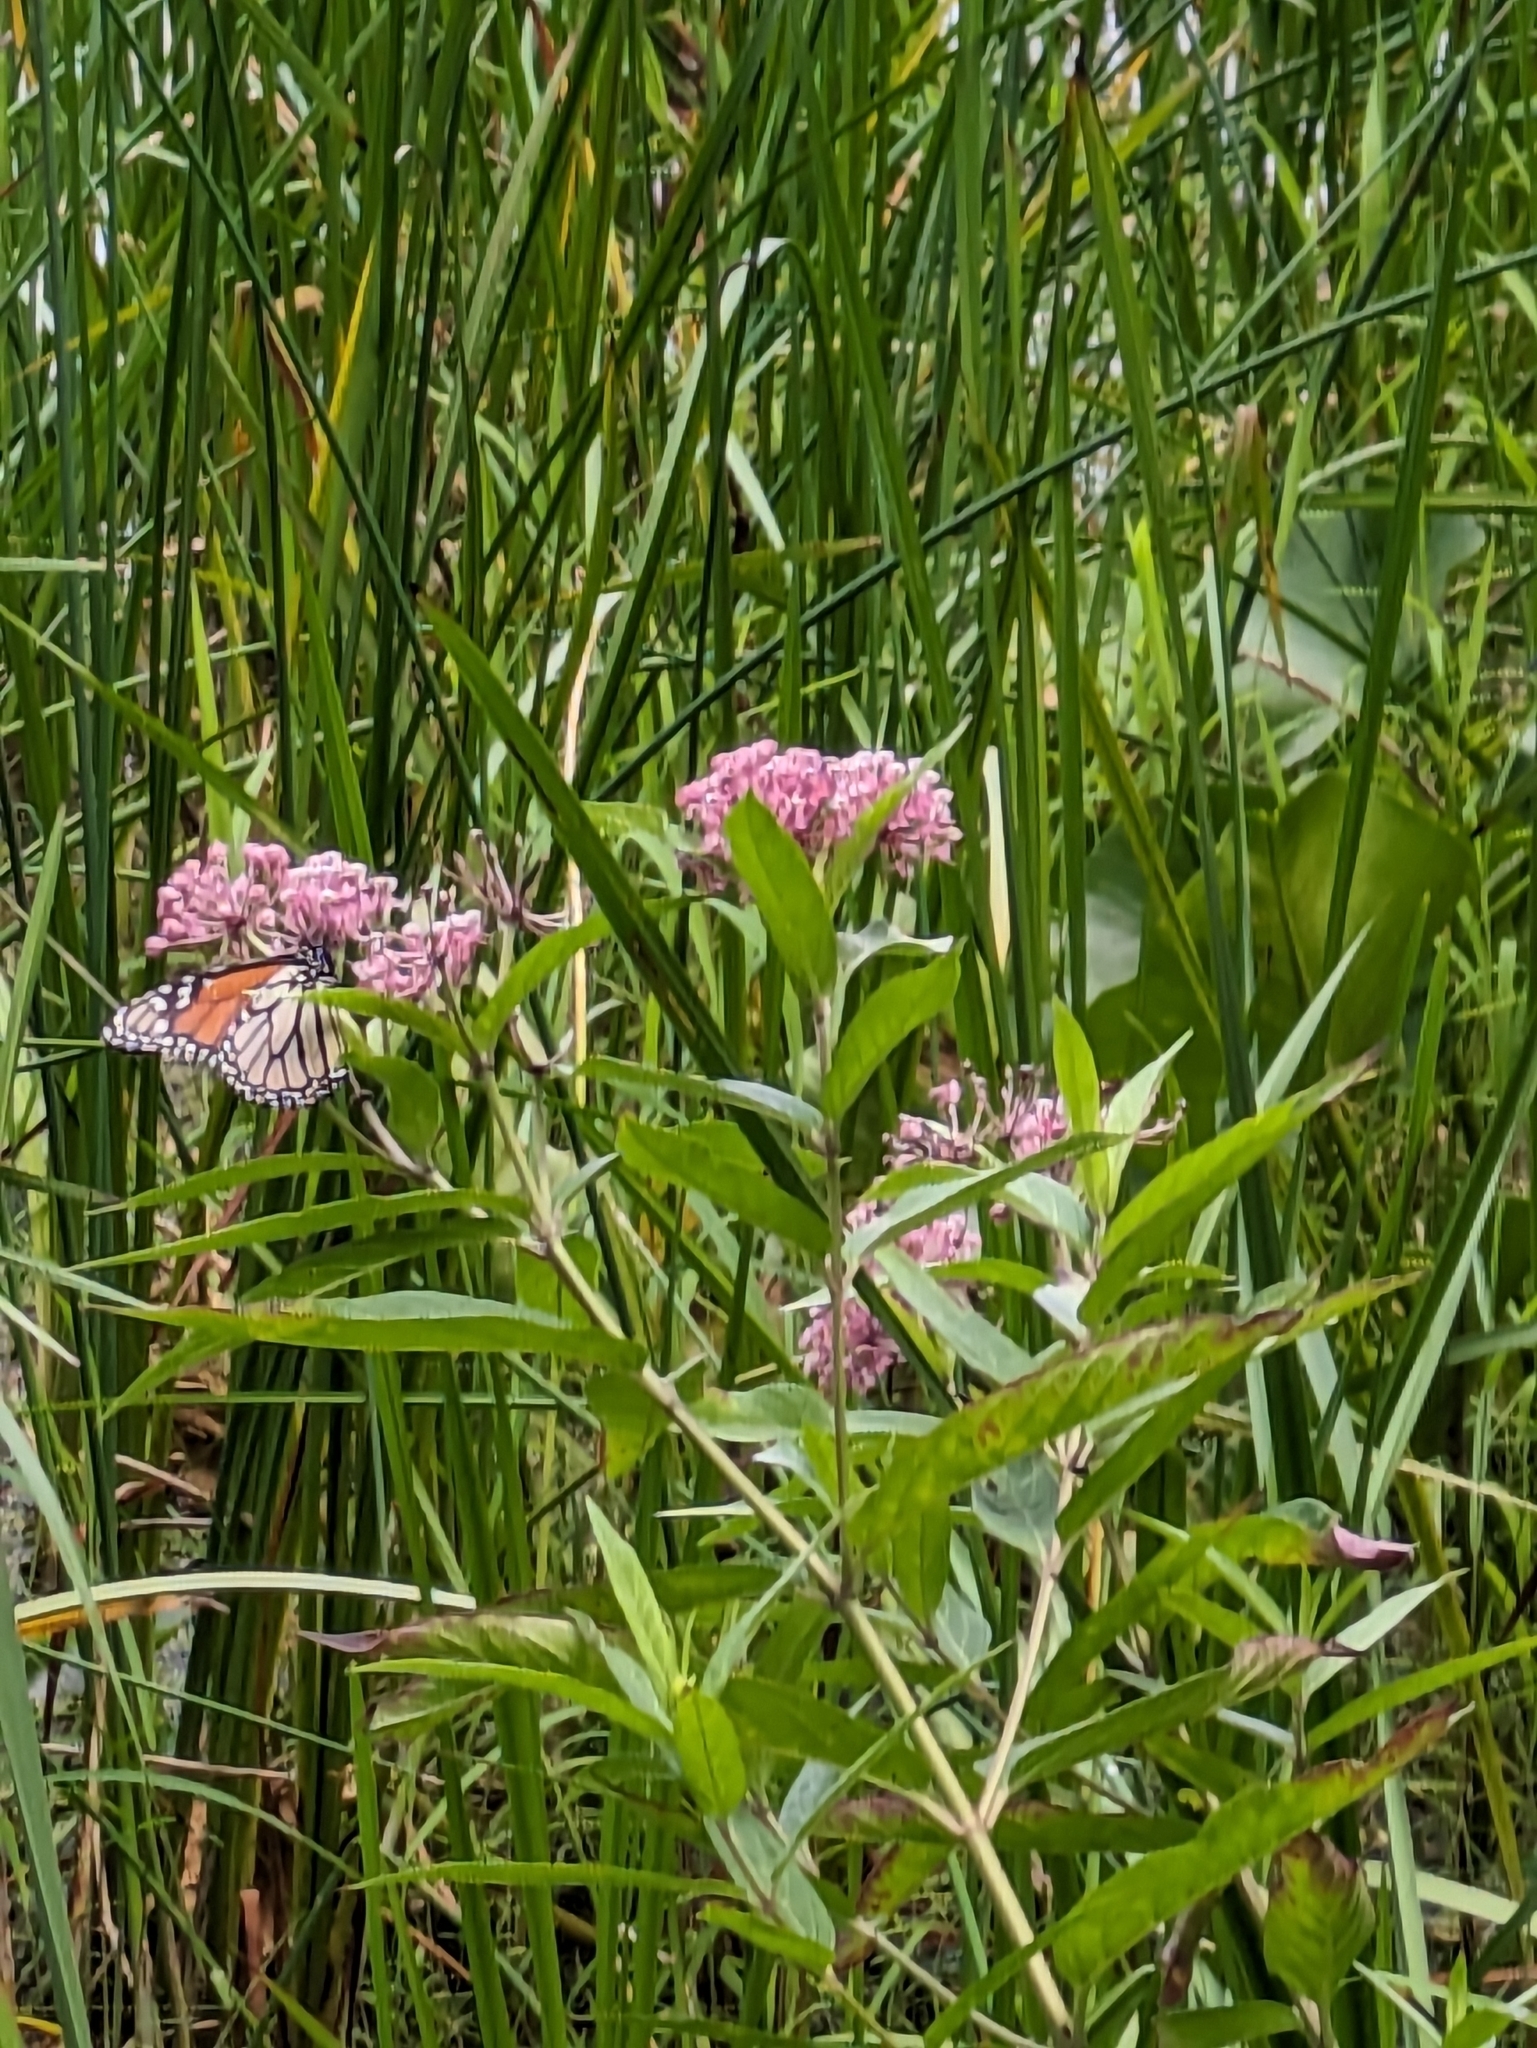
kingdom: Animalia
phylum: Arthropoda
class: Insecta
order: Lepidoptera
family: Nymphalidae
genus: Danaus
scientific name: Danaus plexippus
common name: Monarch
